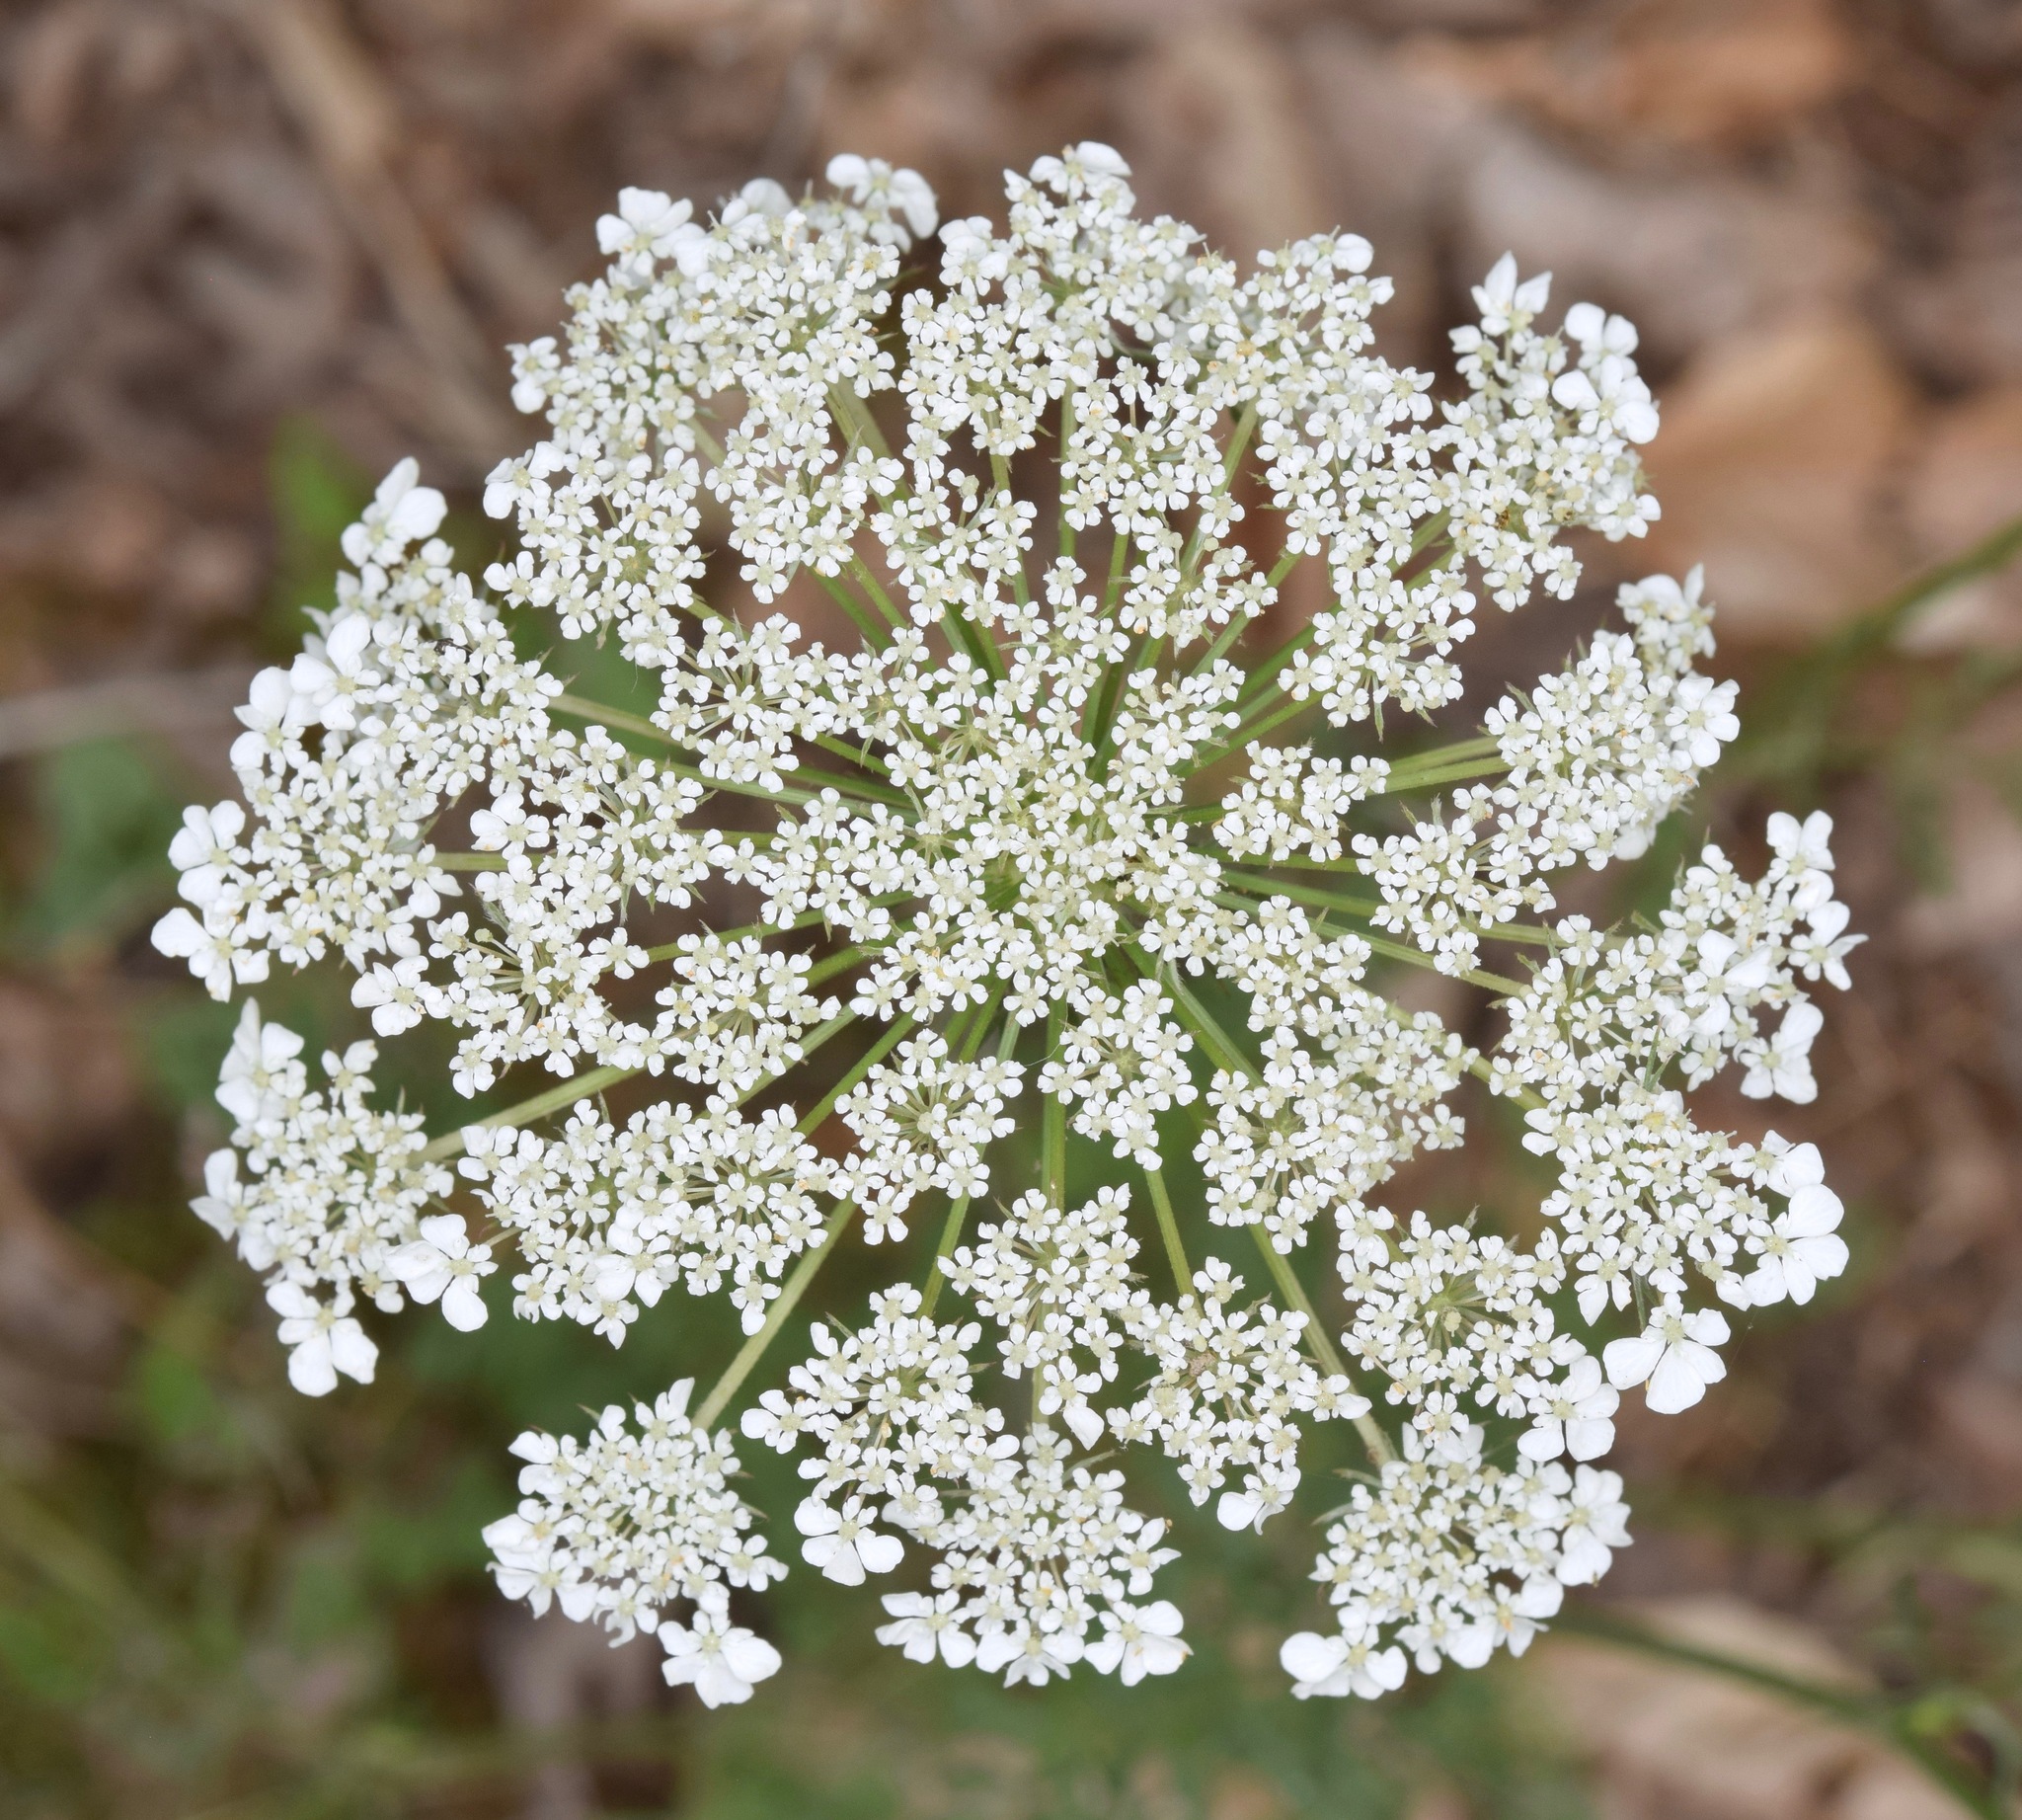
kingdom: Plantae
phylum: Tracheophyta
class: Magnoliopsida
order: Apiales
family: Apiaceae
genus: Daucus
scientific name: Daucus carota
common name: Wild carrot
